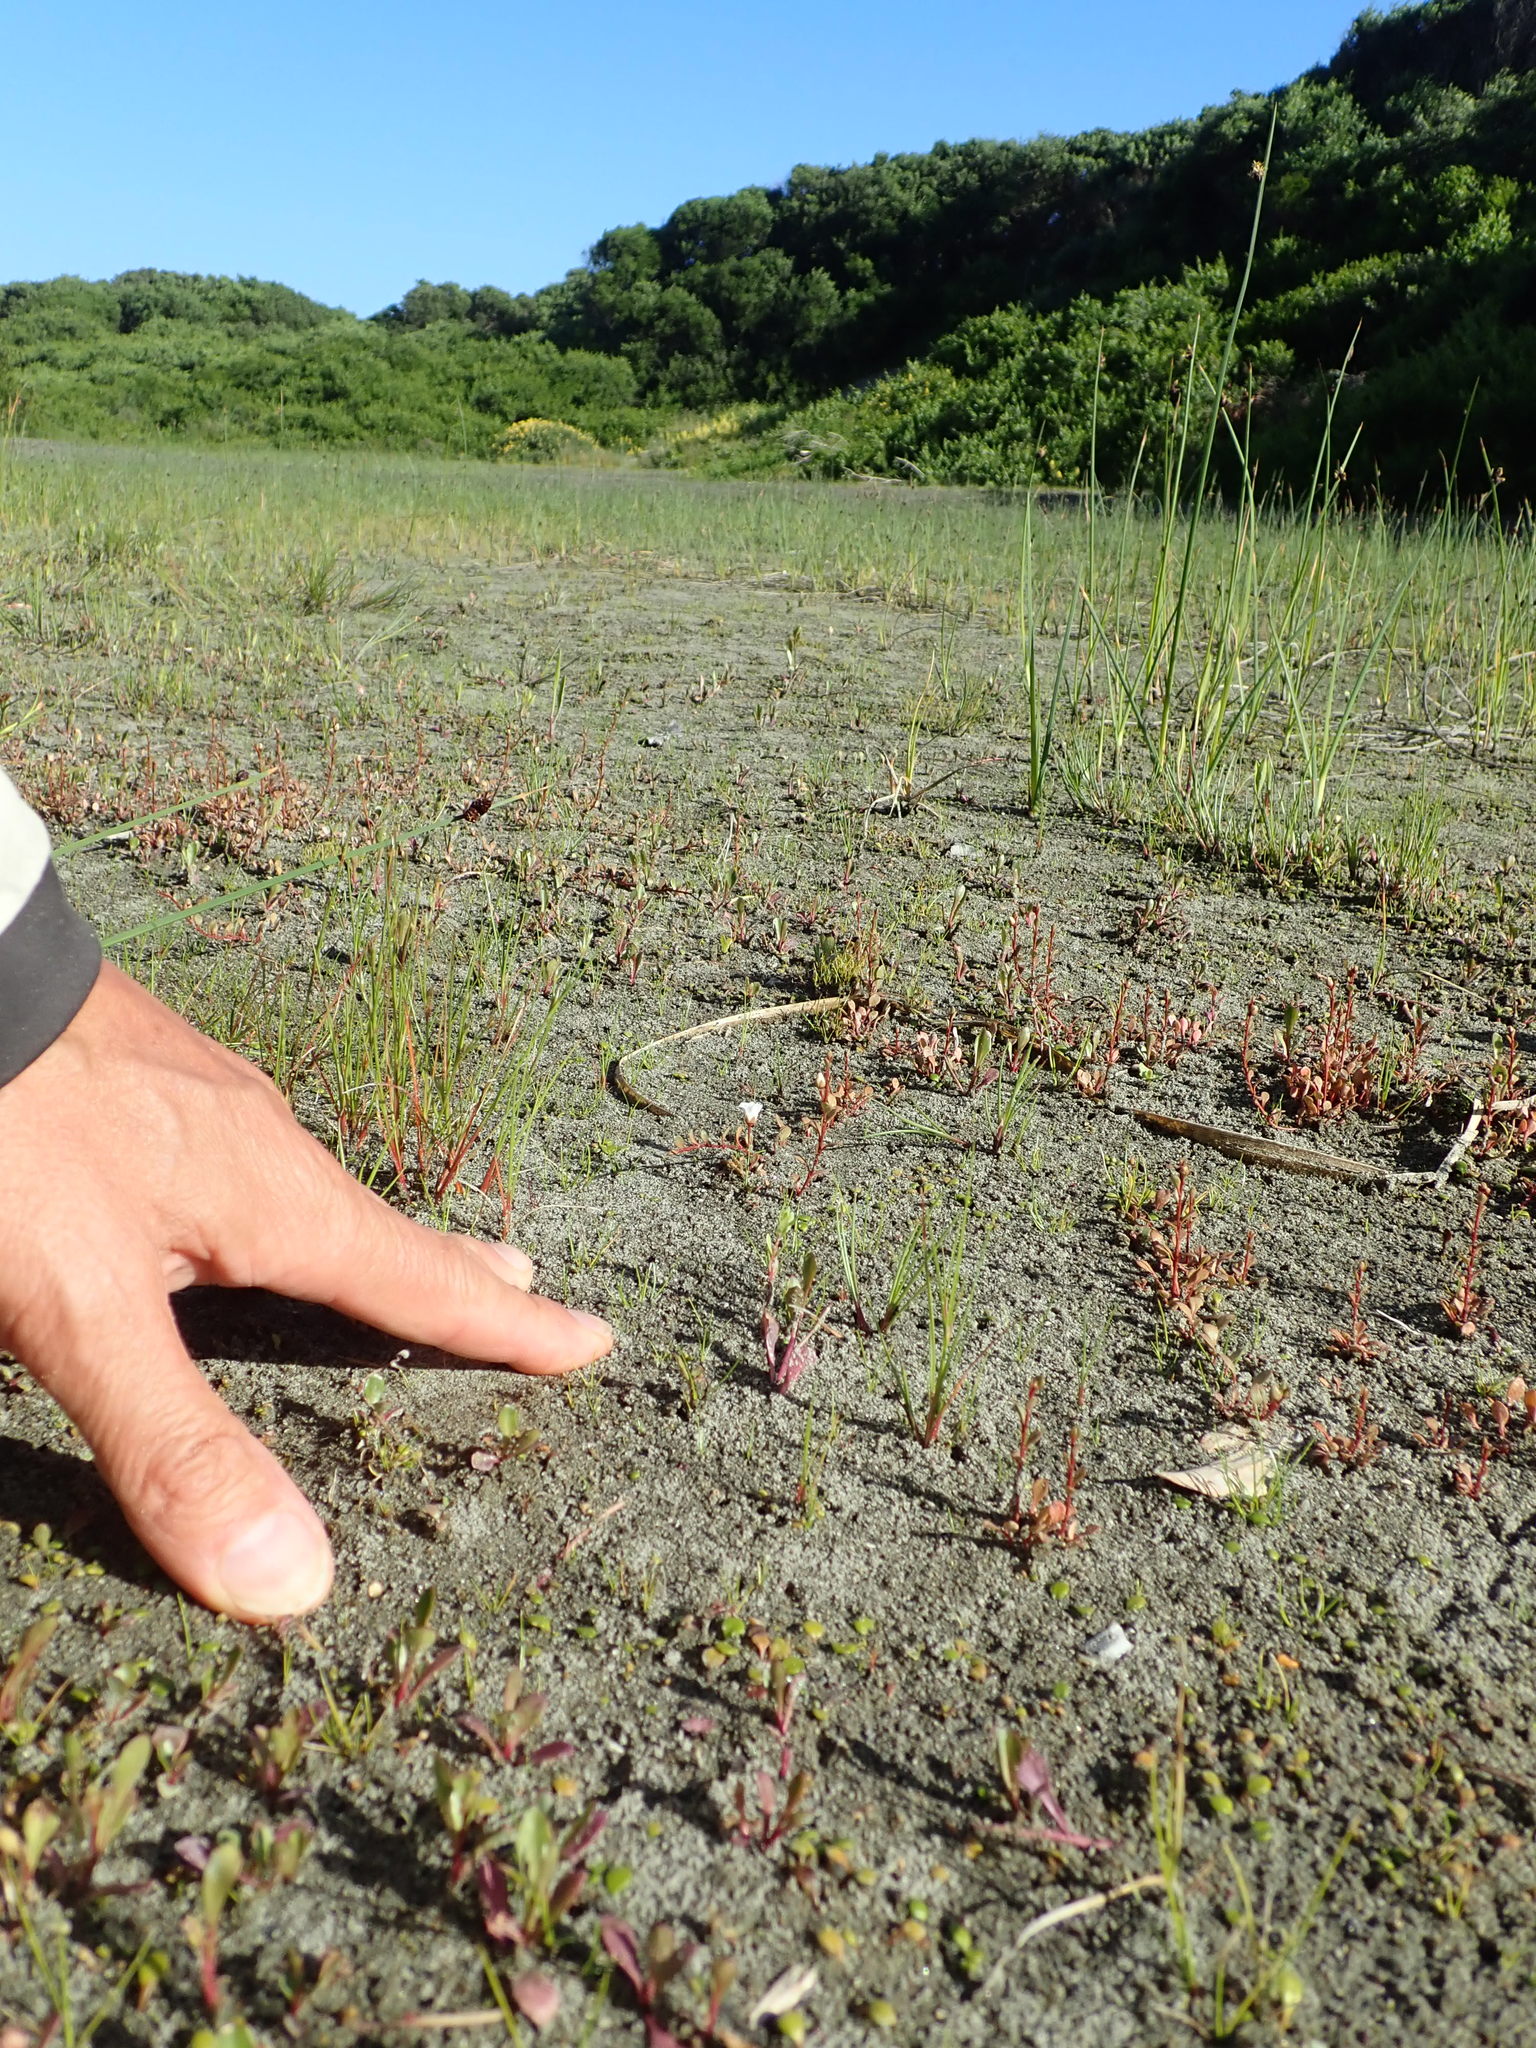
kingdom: Plantae
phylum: Tracheophyta
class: Liliopsida
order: Poales
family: Juncaceae
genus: Juncus
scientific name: Juncus bufonius
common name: Toad rush
